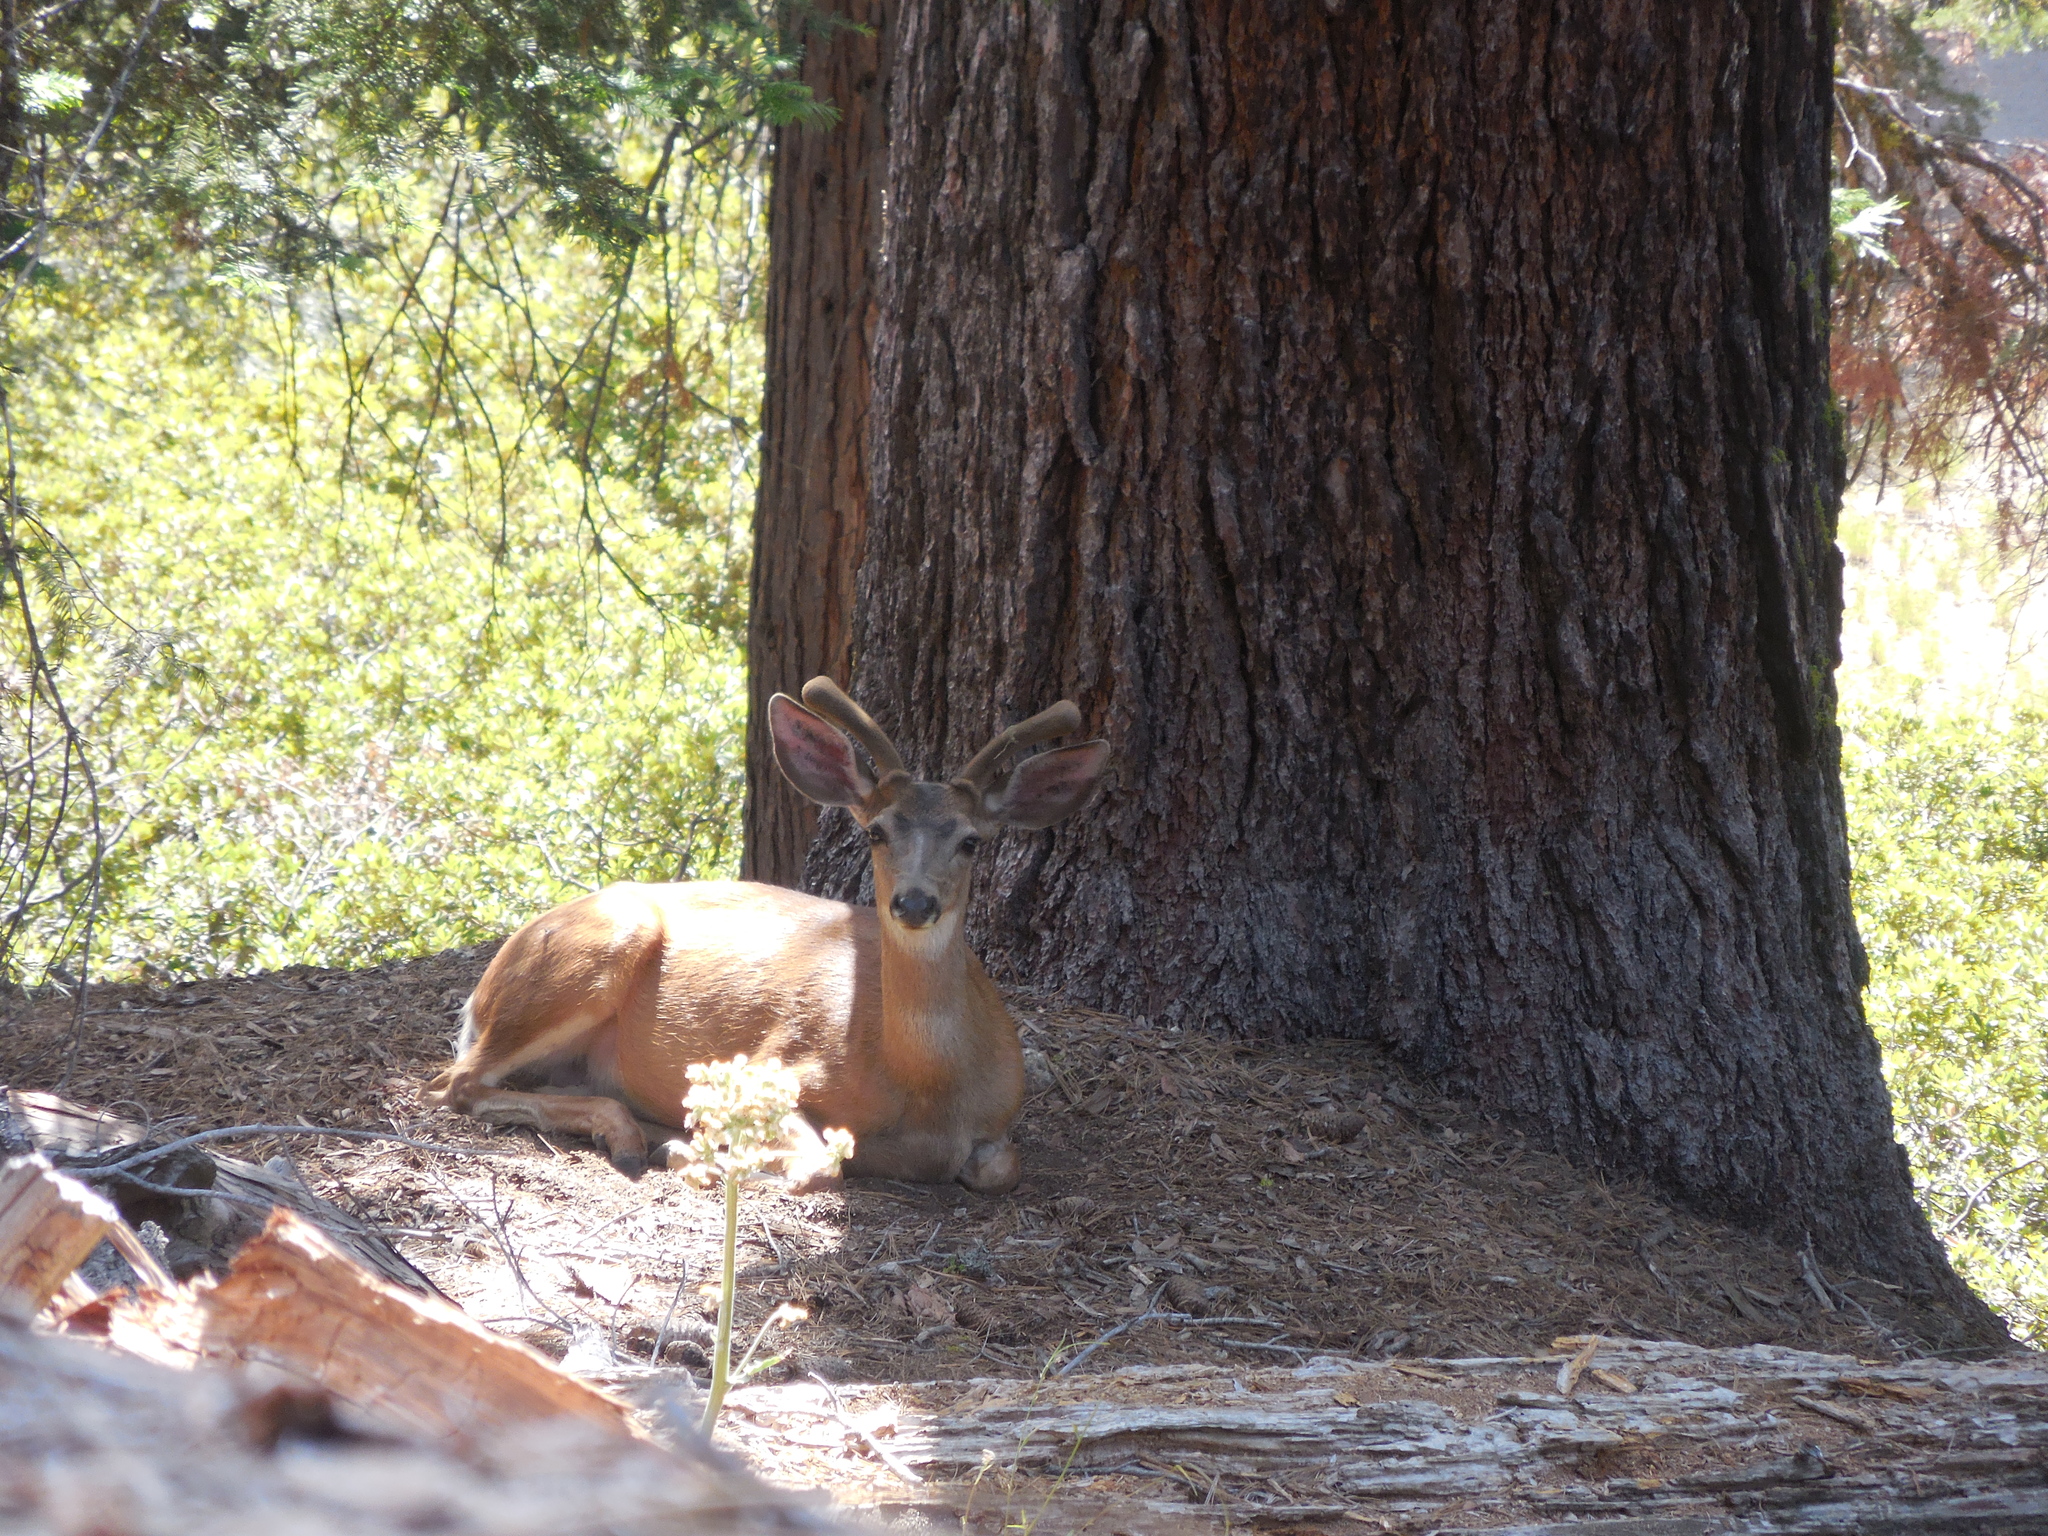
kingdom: Animalia
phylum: Chordata
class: Mammalia
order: Artiodactyla
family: Cervidae
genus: Odocoileus
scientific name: Odocoileus hemionus
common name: Mule deer
